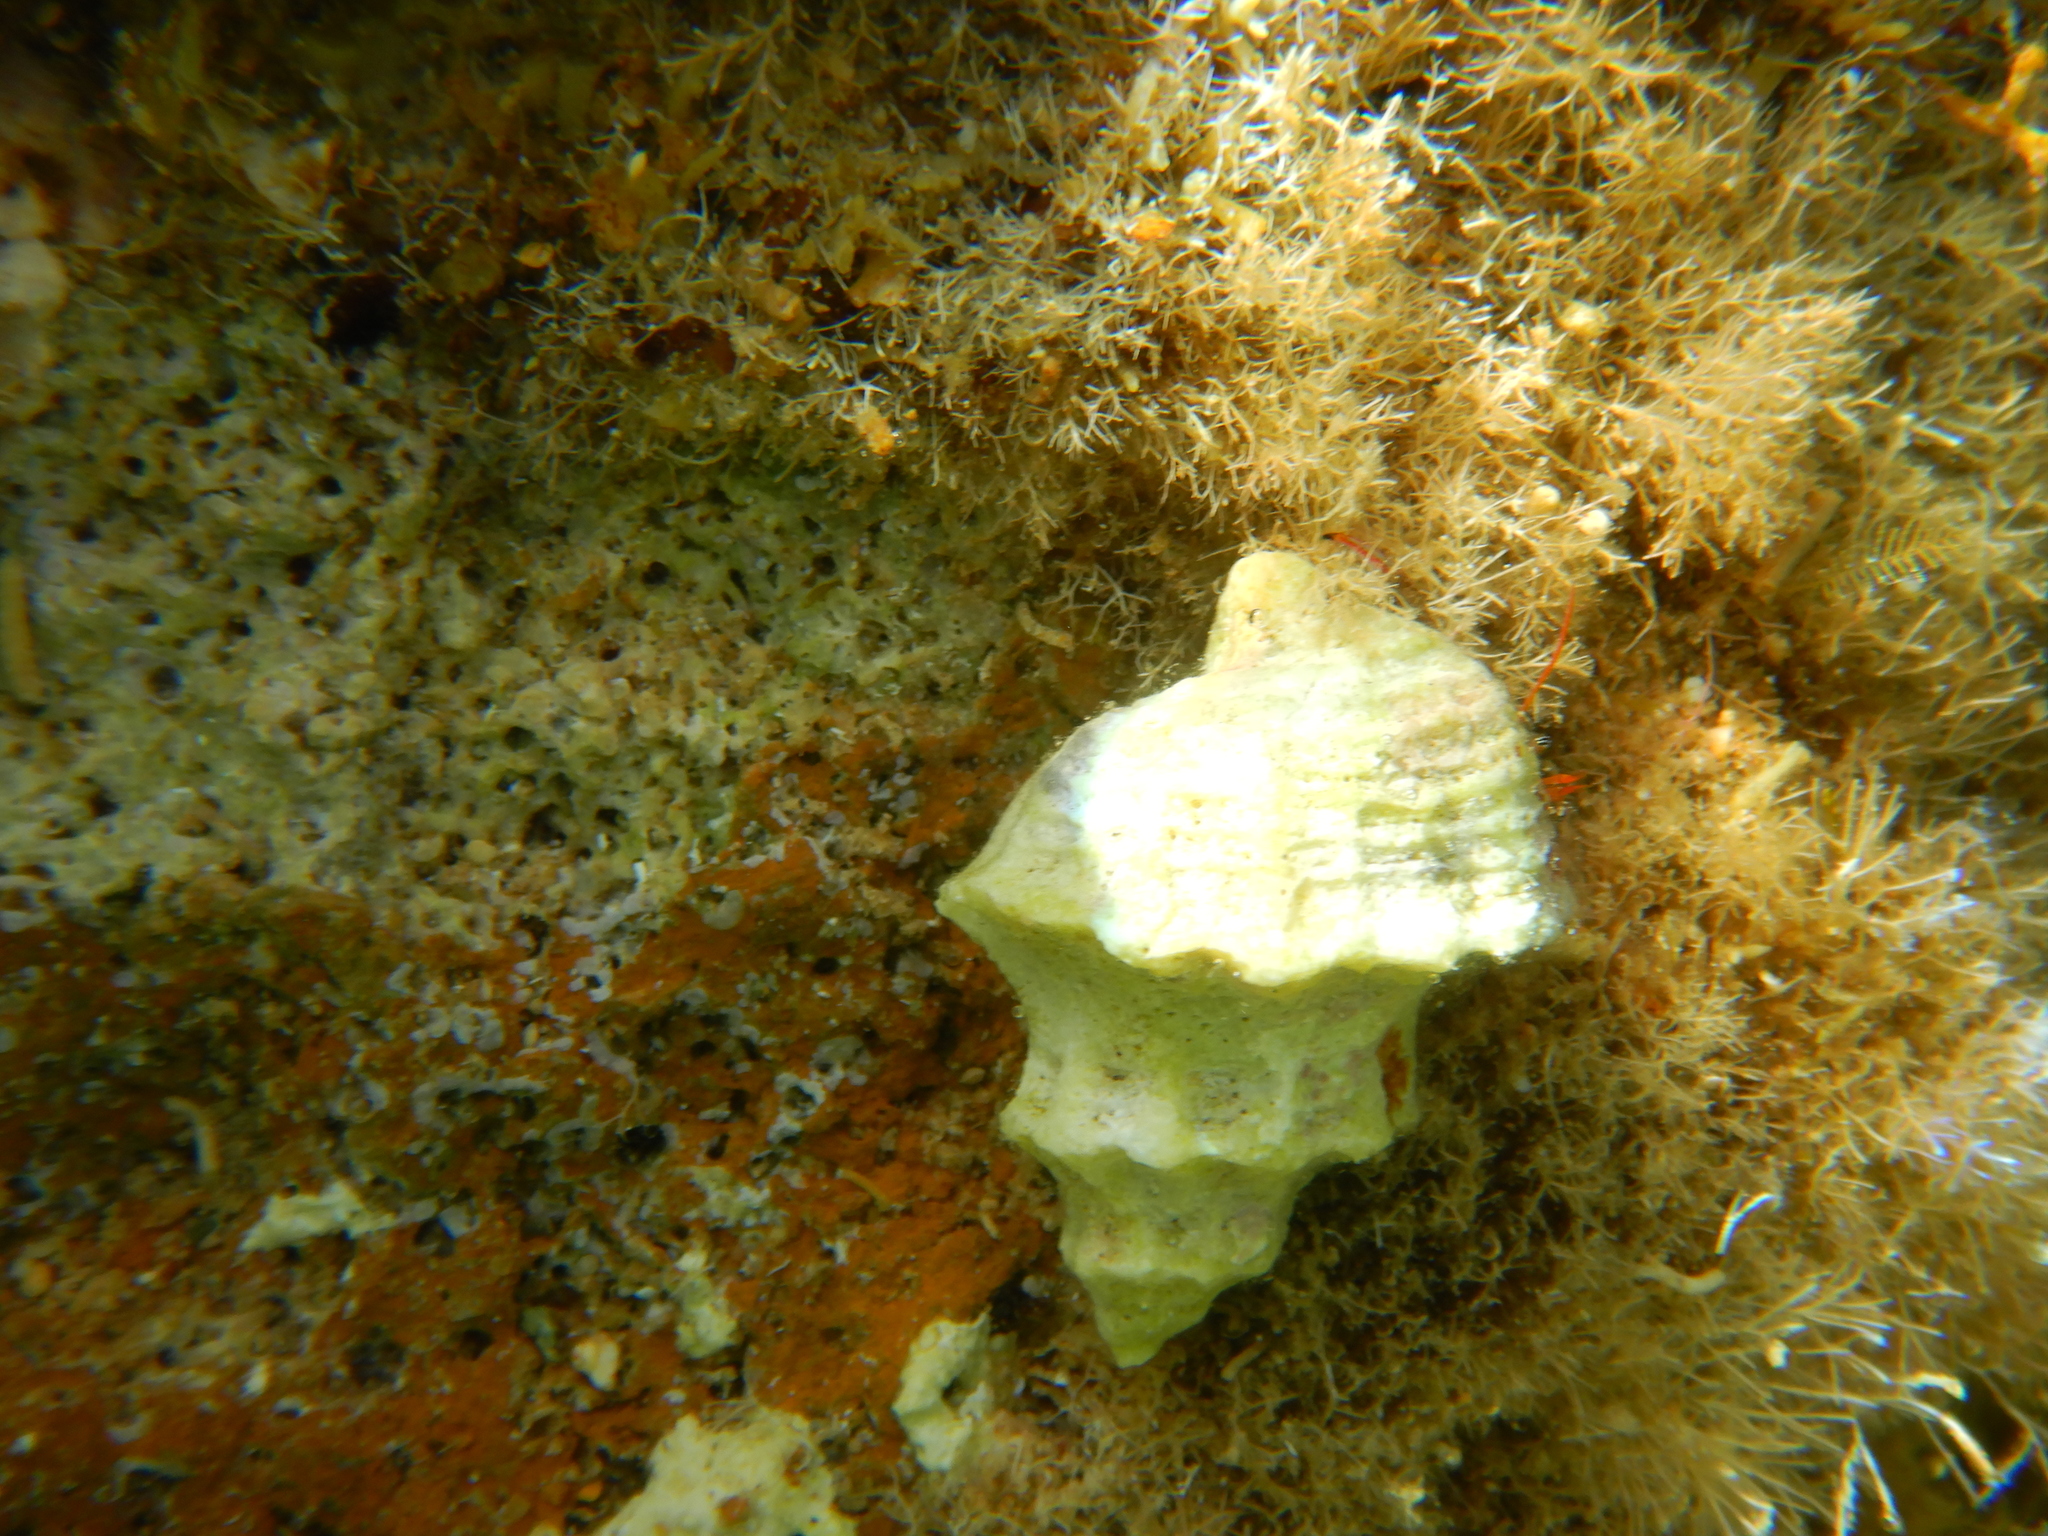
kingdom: Animalia
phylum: Mollusca
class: Gastropoda
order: Neogastropoda
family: Muricidae
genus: Babelomurex
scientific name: Babelomurex cariniferus
